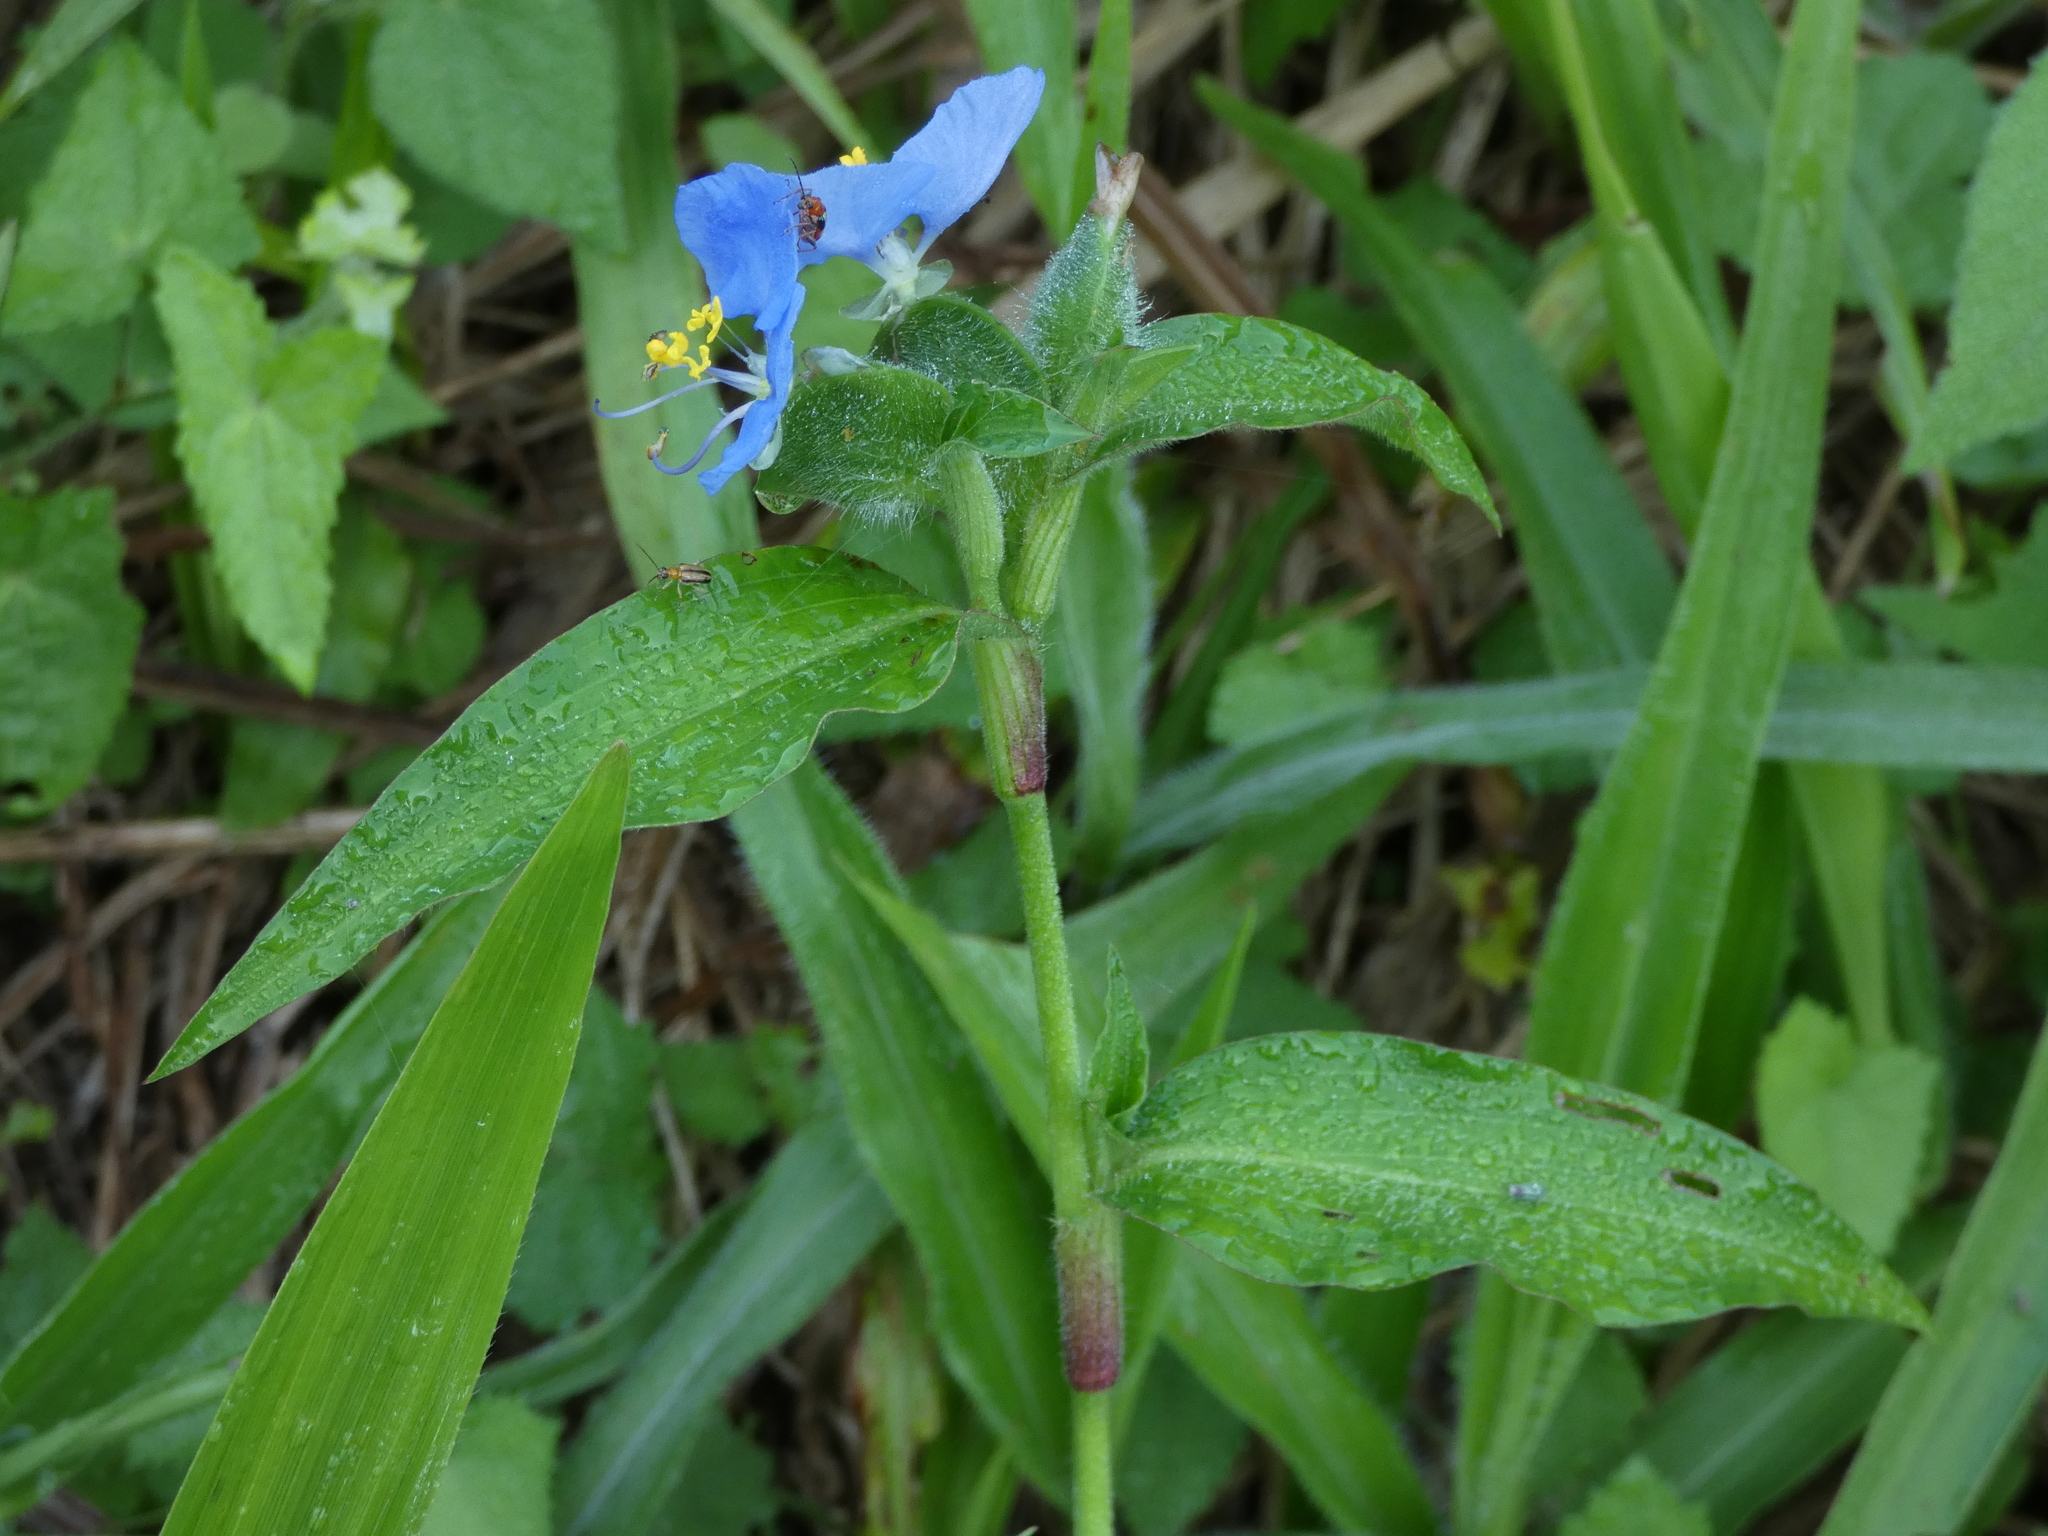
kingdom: Plantae
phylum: Tracheophyta
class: Liliopsida
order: Commelinales
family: Commelinaceae
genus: Commelina
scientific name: Commelina erecta
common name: Blousel blommetjie
